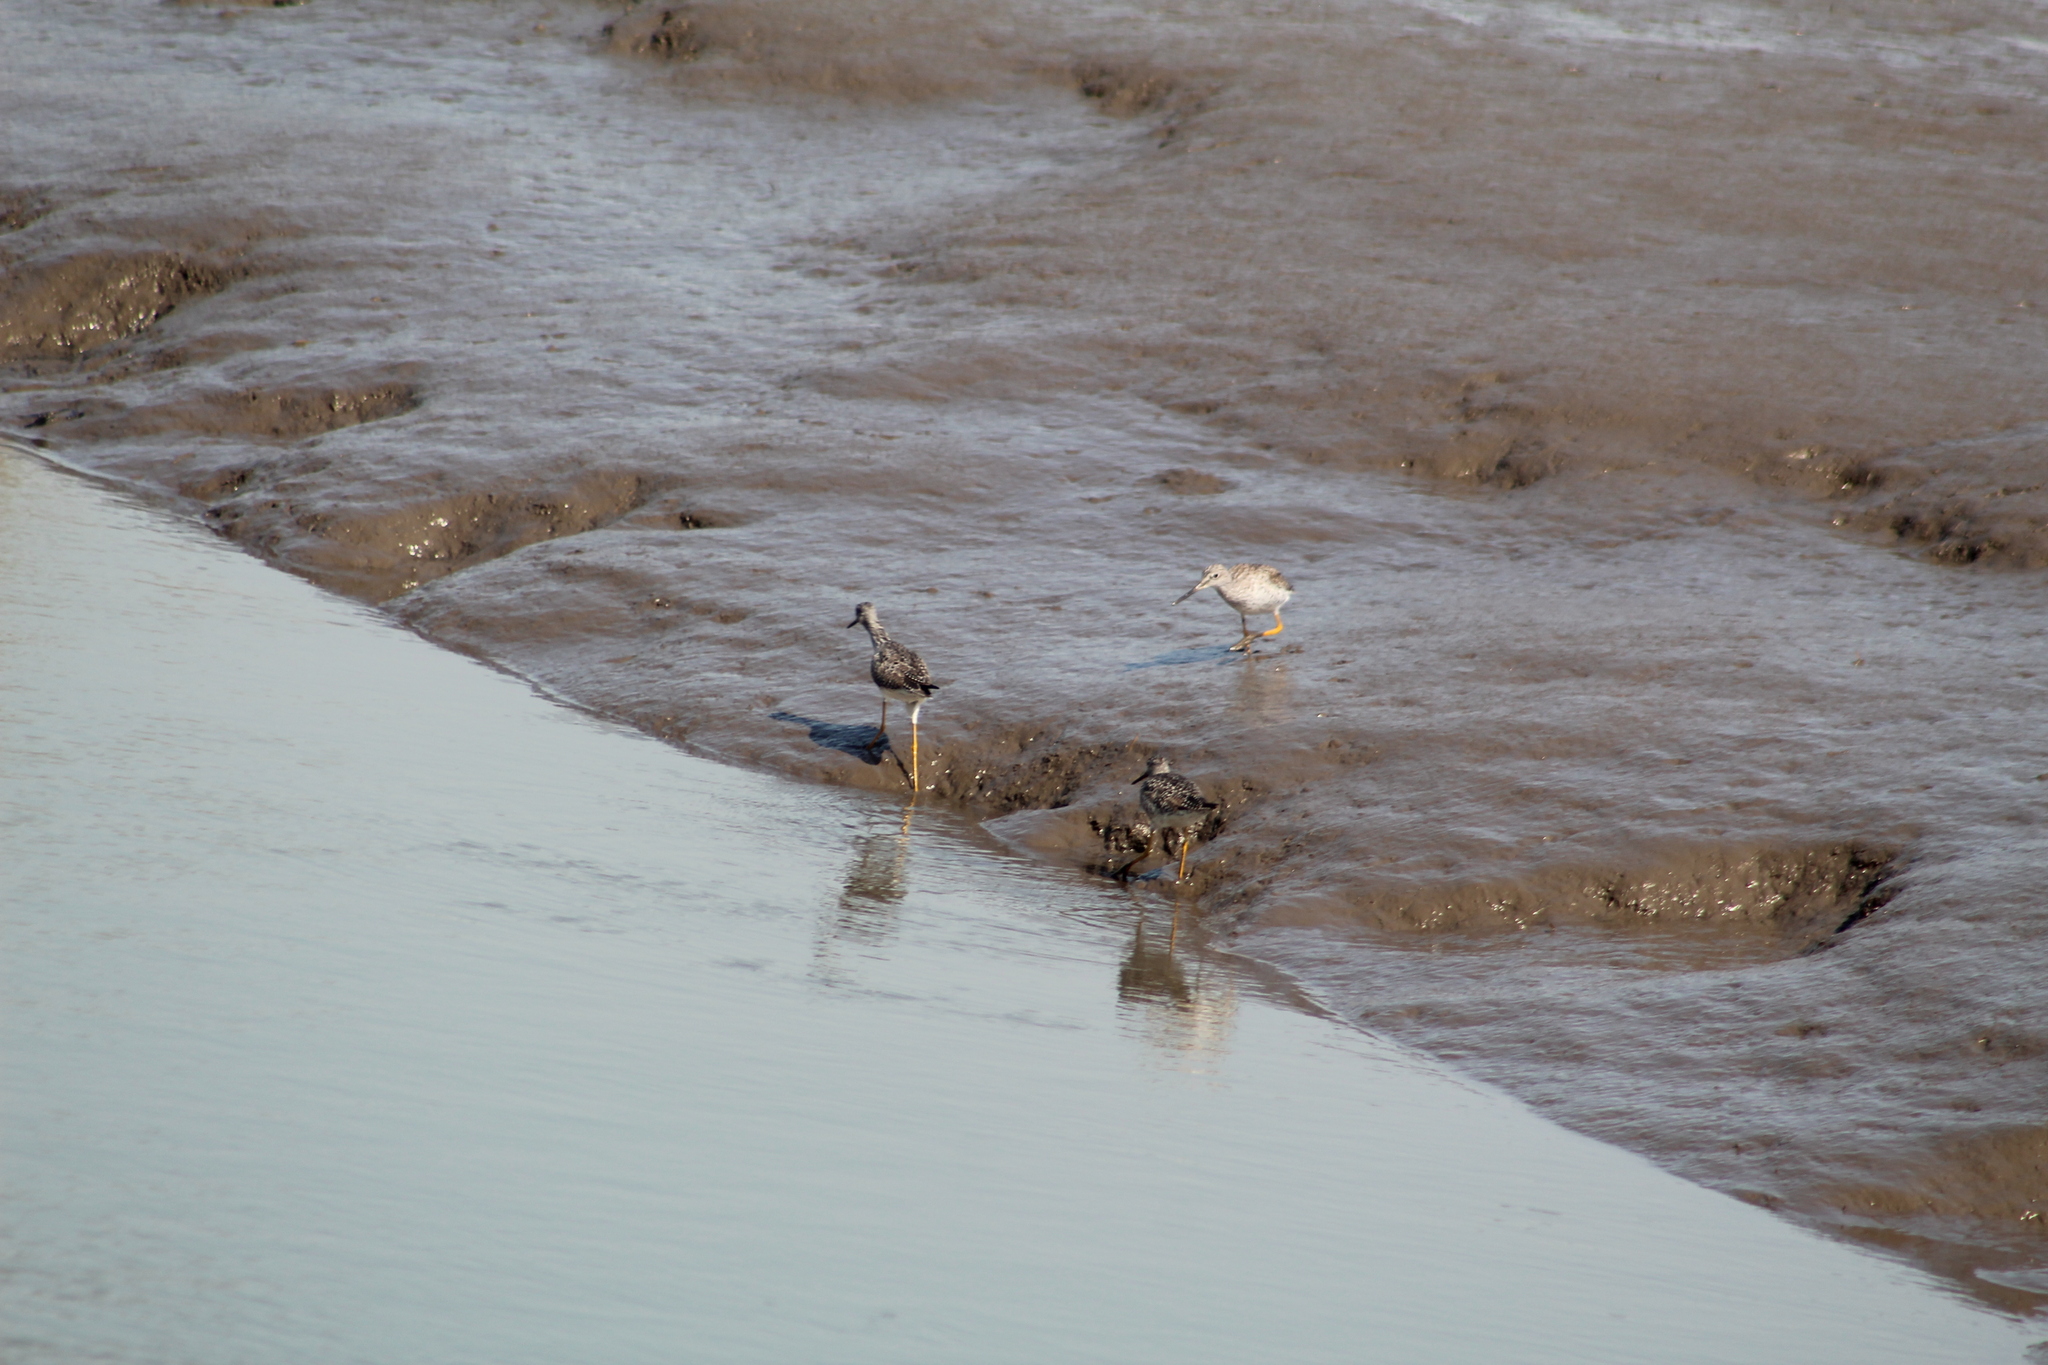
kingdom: Animalia
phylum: Chordata
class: Aves
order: Charadriiformes
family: Scolopacidae
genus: Tringa
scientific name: Tringa melanoleuca
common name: Greater yellowlegs
